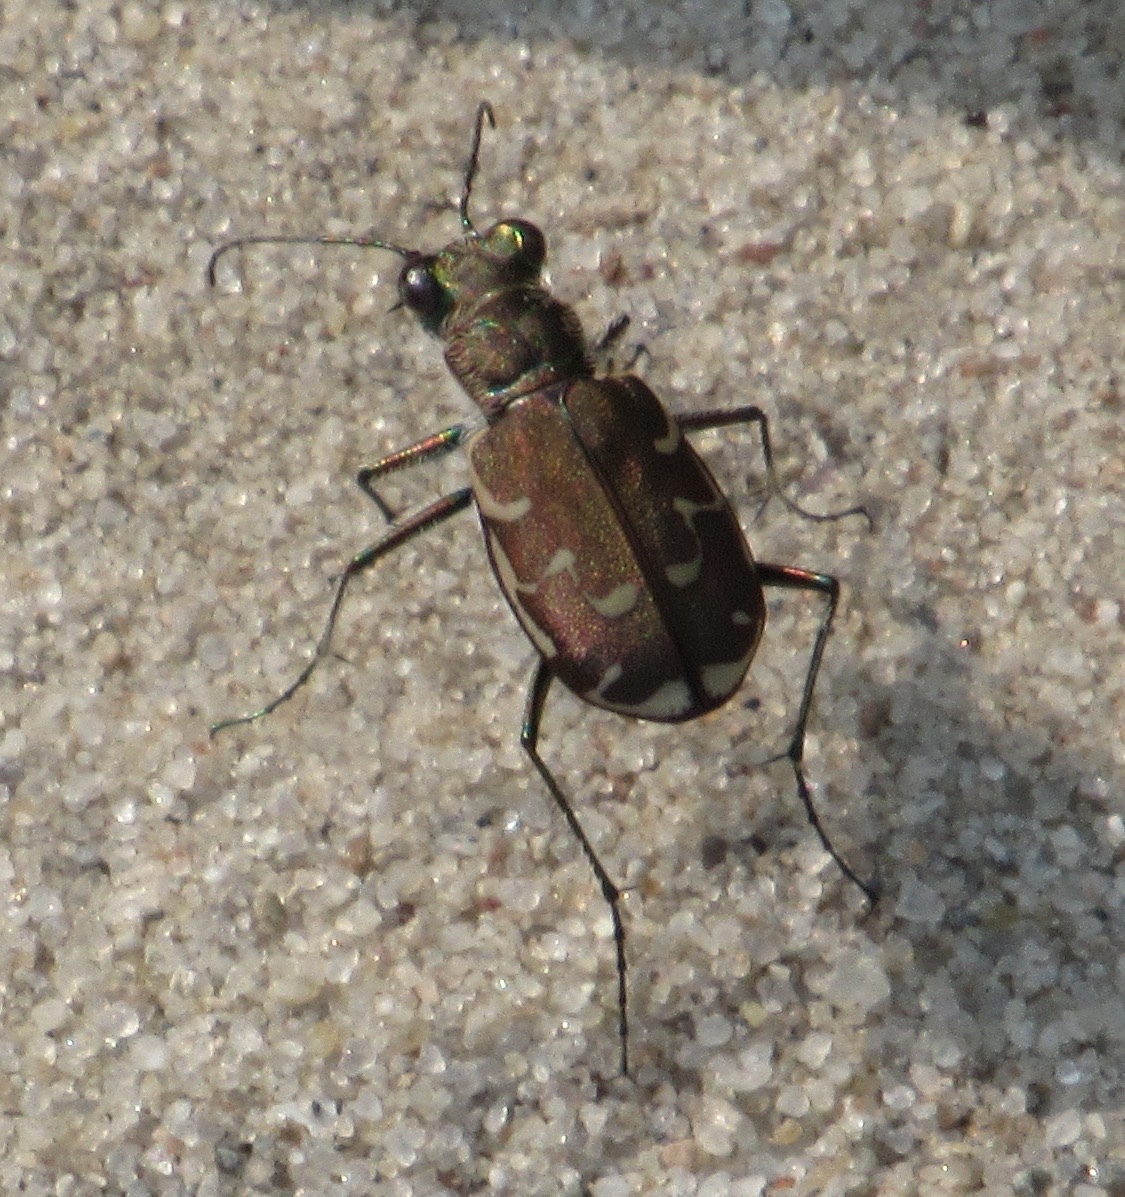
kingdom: Animalia
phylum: Arthropoda
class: Insecta
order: Coleoptera
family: Carabidae
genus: Cicindela
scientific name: Cicindela repanda
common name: Bronzed tiger beetle
